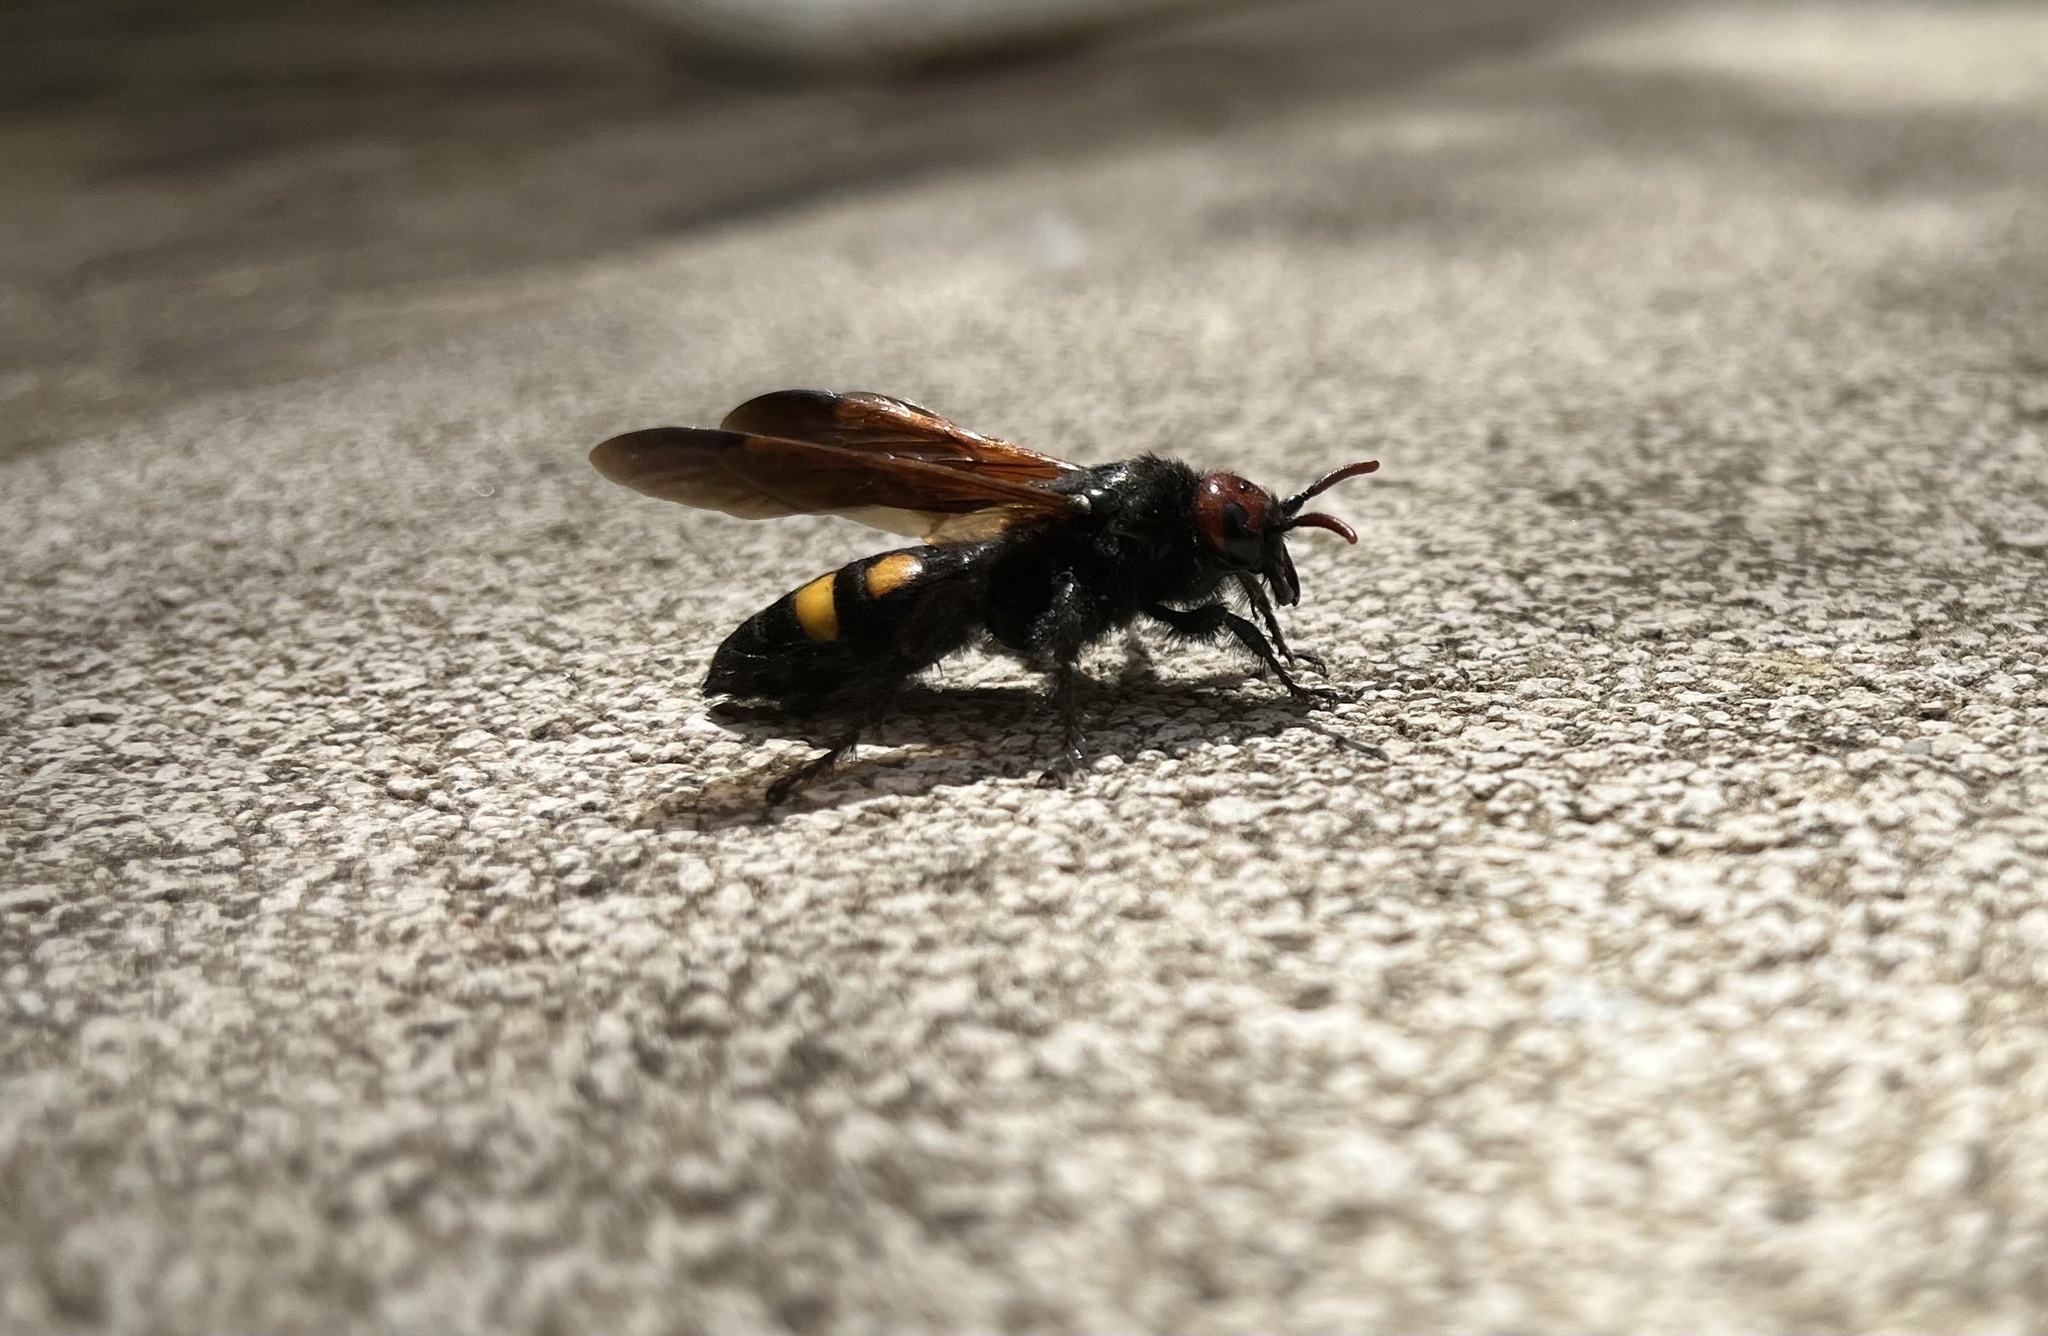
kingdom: Animalia
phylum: Arthropoda
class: Insecta
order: Hymenoptera
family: Scoliidae
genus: Megascolia
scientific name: Megascolia bidens
